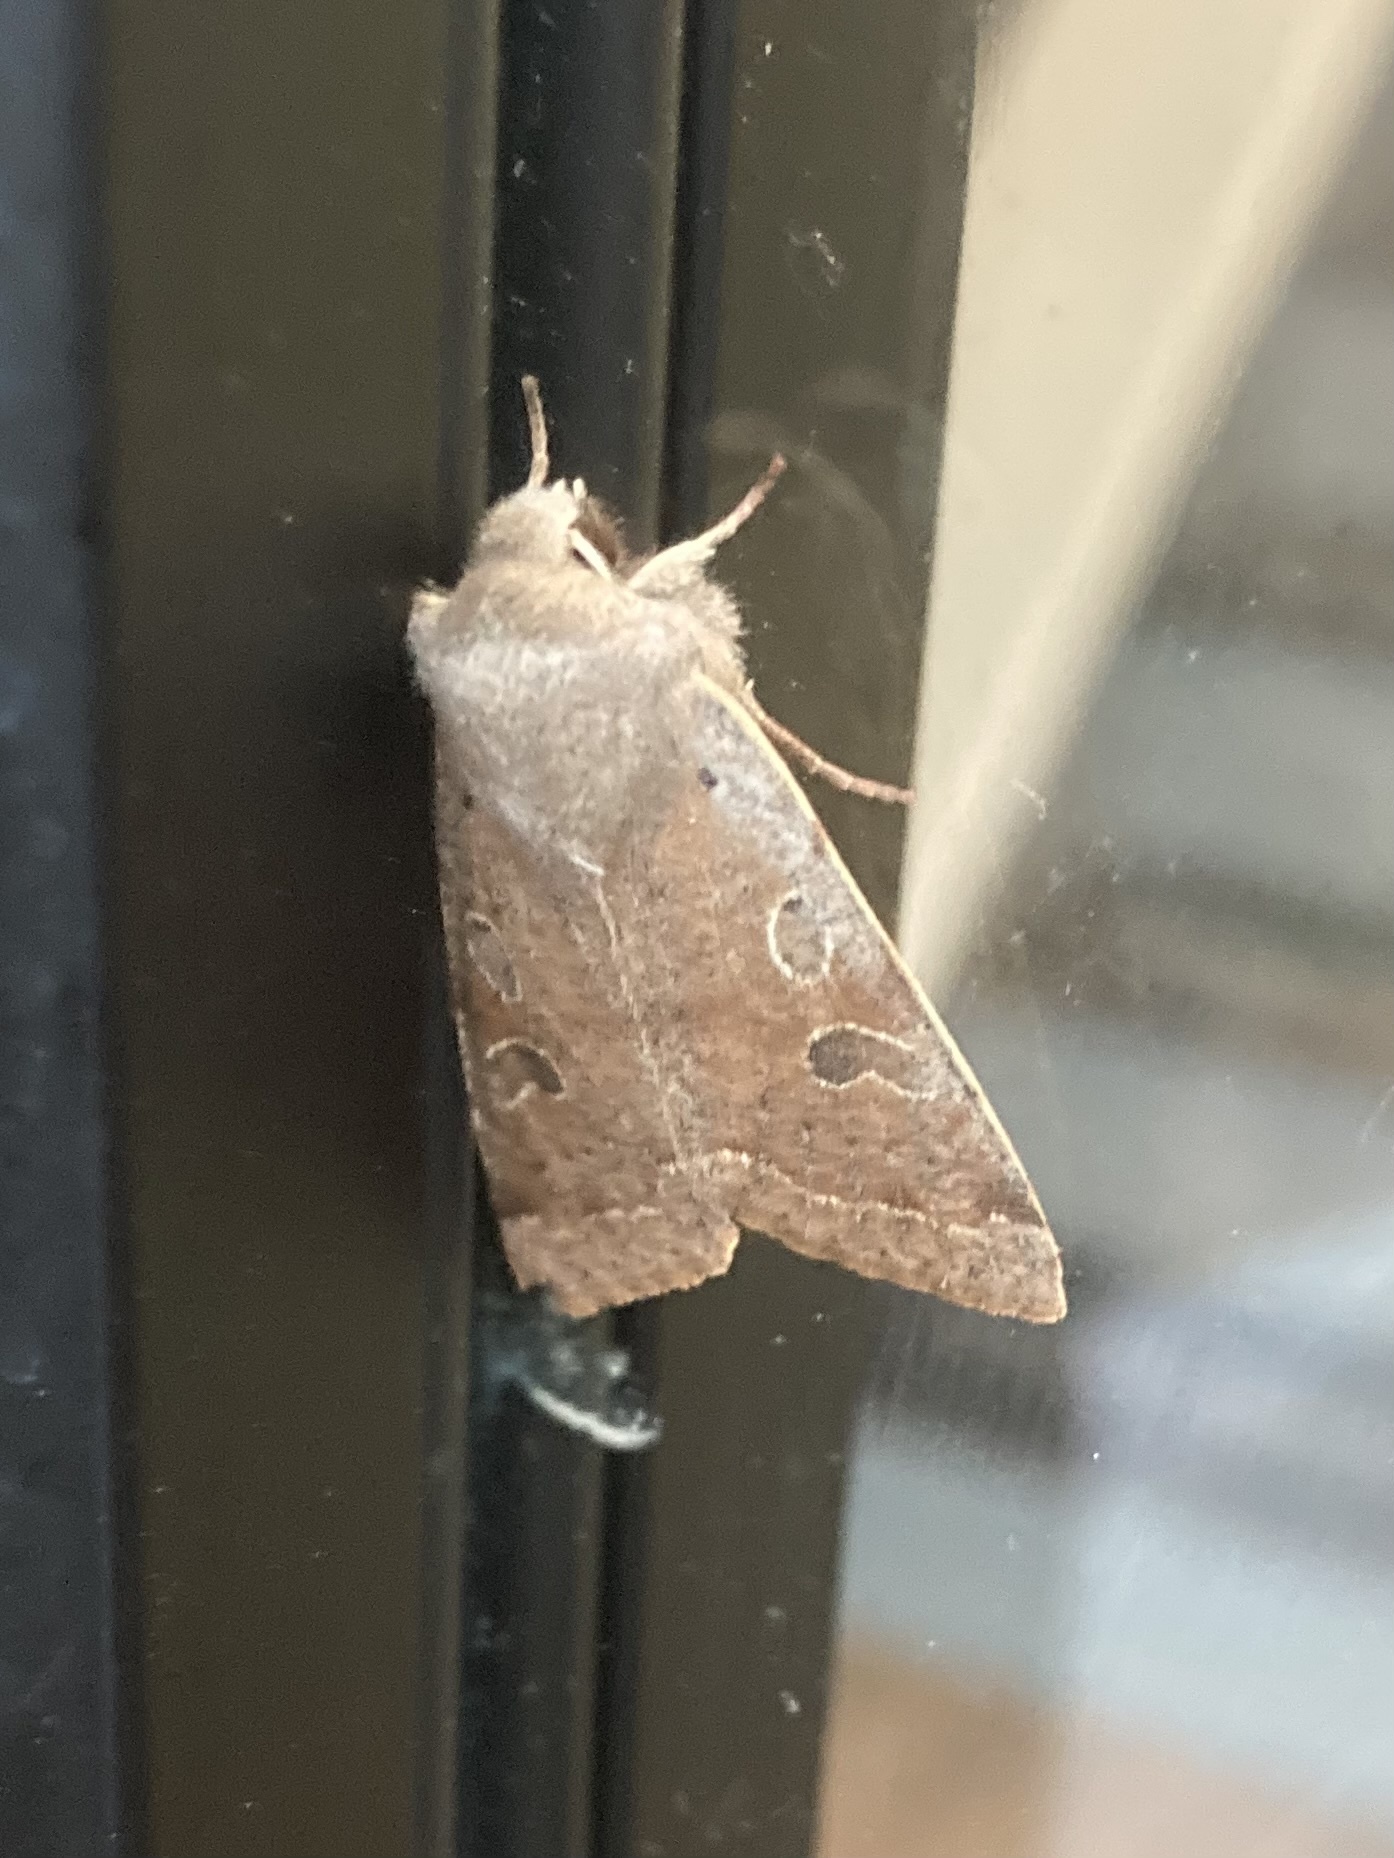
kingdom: Animalia
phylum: Arthropoda
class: Insecta
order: Lepidoptera
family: Noctuidae
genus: Orthosia
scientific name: Orthosia hibisci
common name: Green fruitworm
